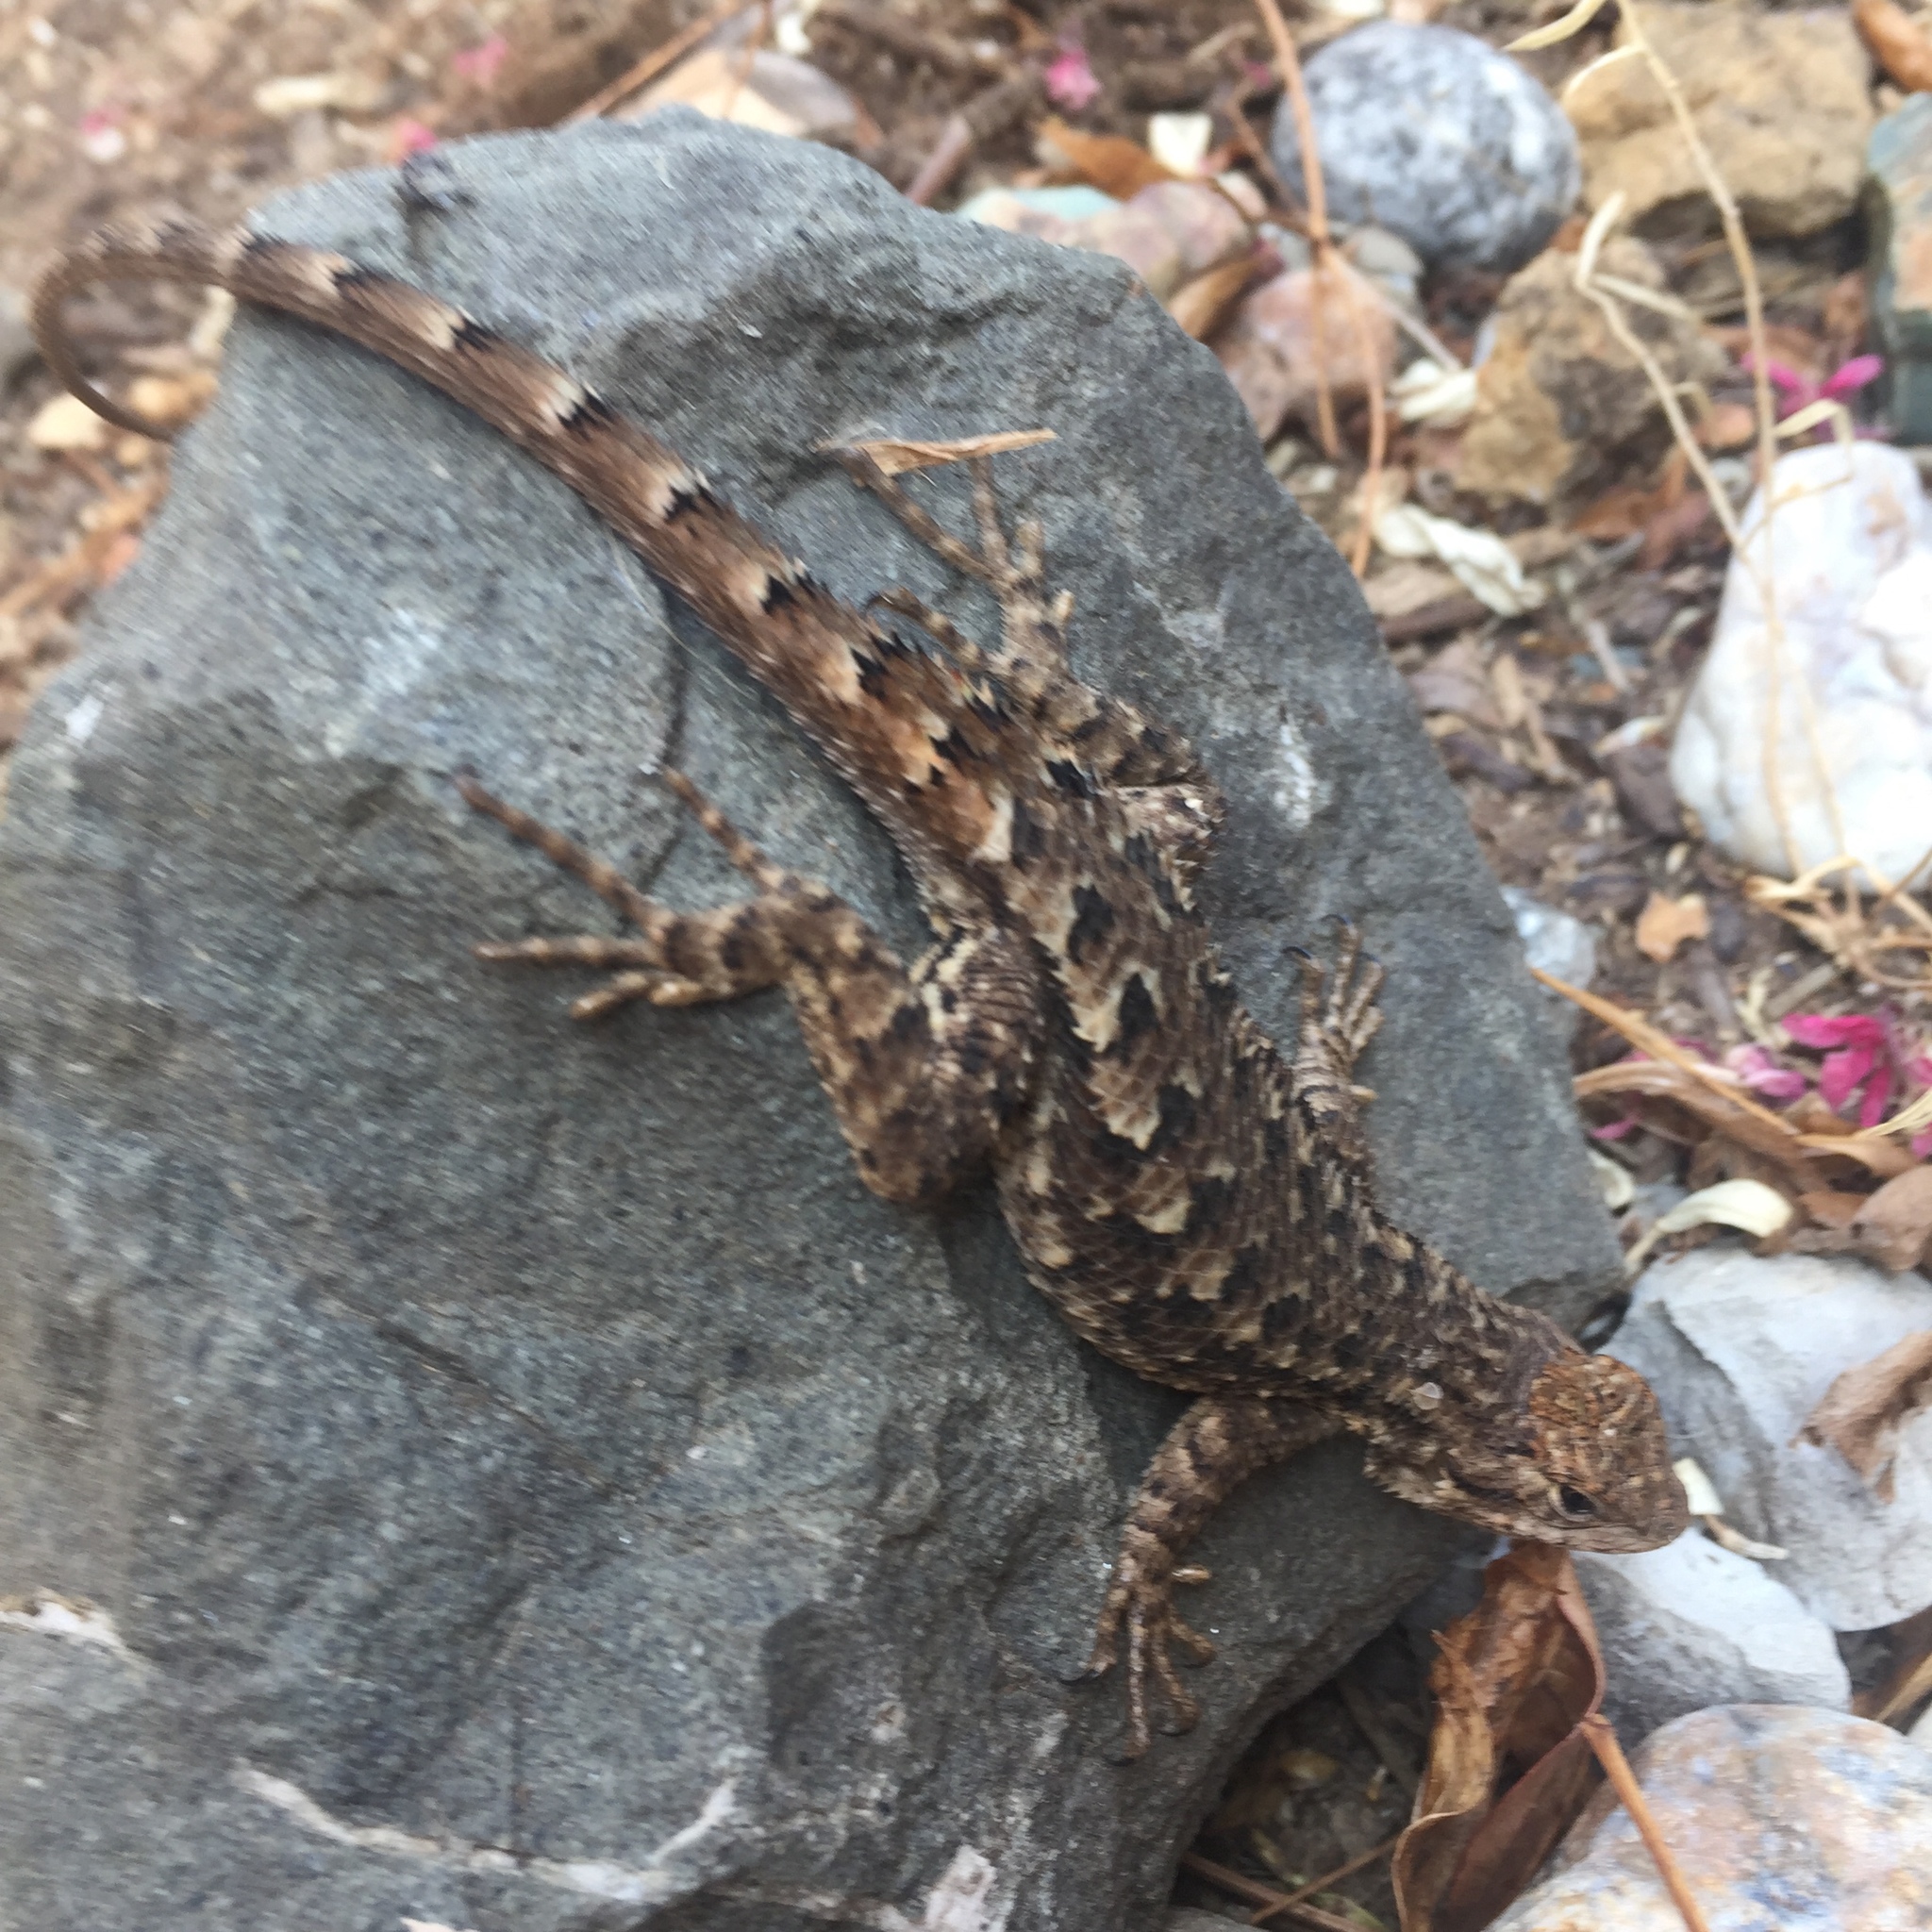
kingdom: Animalia
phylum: Chordata
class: Squamata
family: Phrynosomatidae
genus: Sceloporus
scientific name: Sceloporus occidentalis
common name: Western fence lizard
